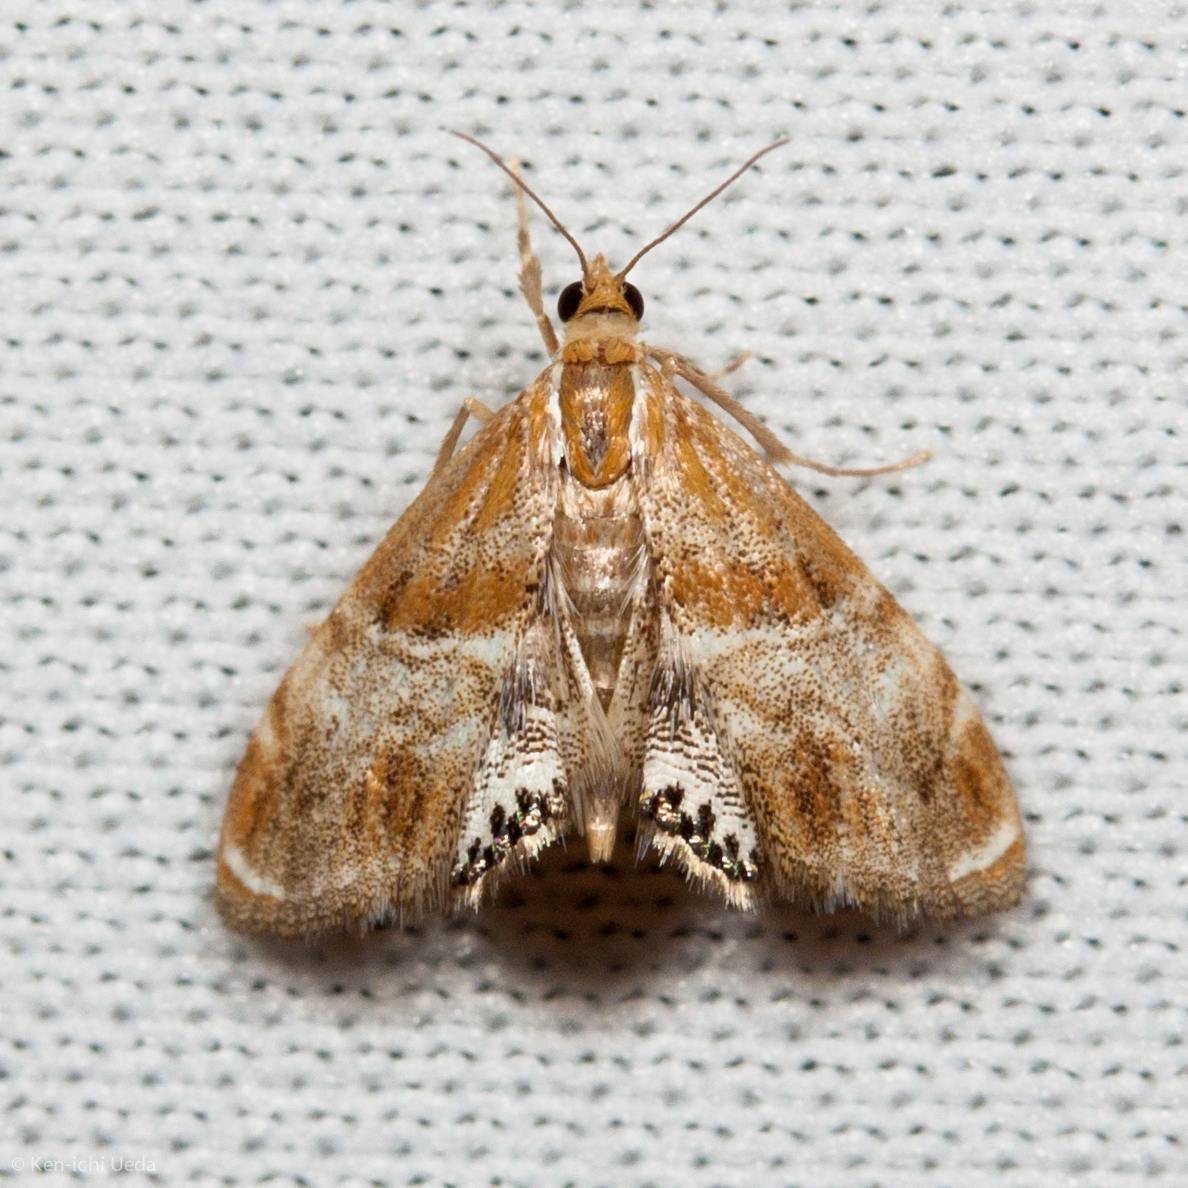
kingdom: Animalia
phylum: Arthropoda
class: Insecta
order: Lepidoptera
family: Crambidae
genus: Dicymolomia
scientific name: Dicymolomia metalliferalis
